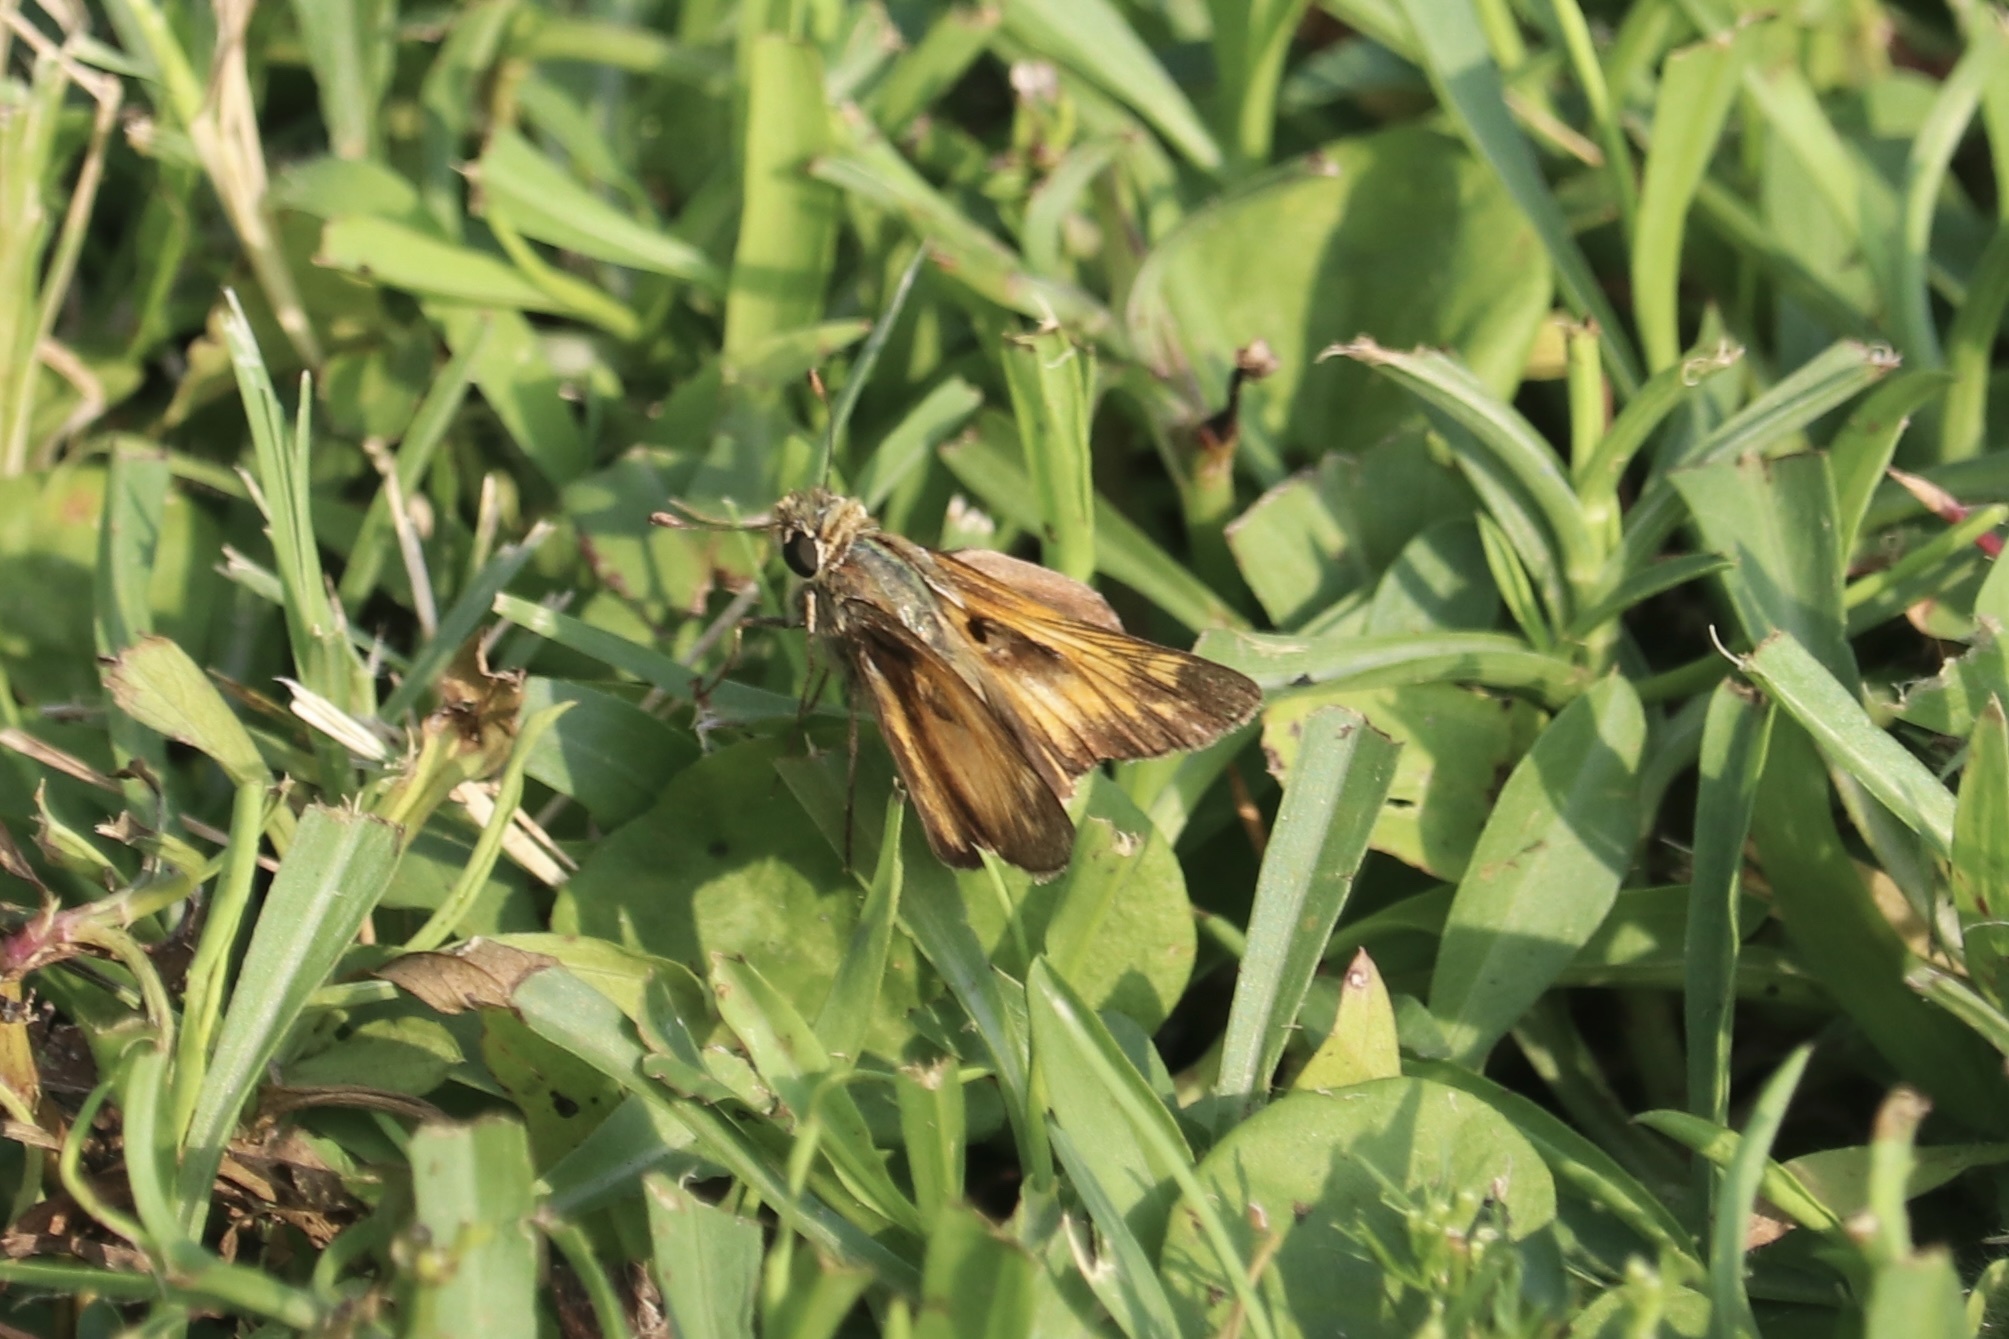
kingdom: Animalia
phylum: Arthropoda
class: Insecta
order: Lepidoptera
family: Hesperiidae
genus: Atalopedes
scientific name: Atalopedes
